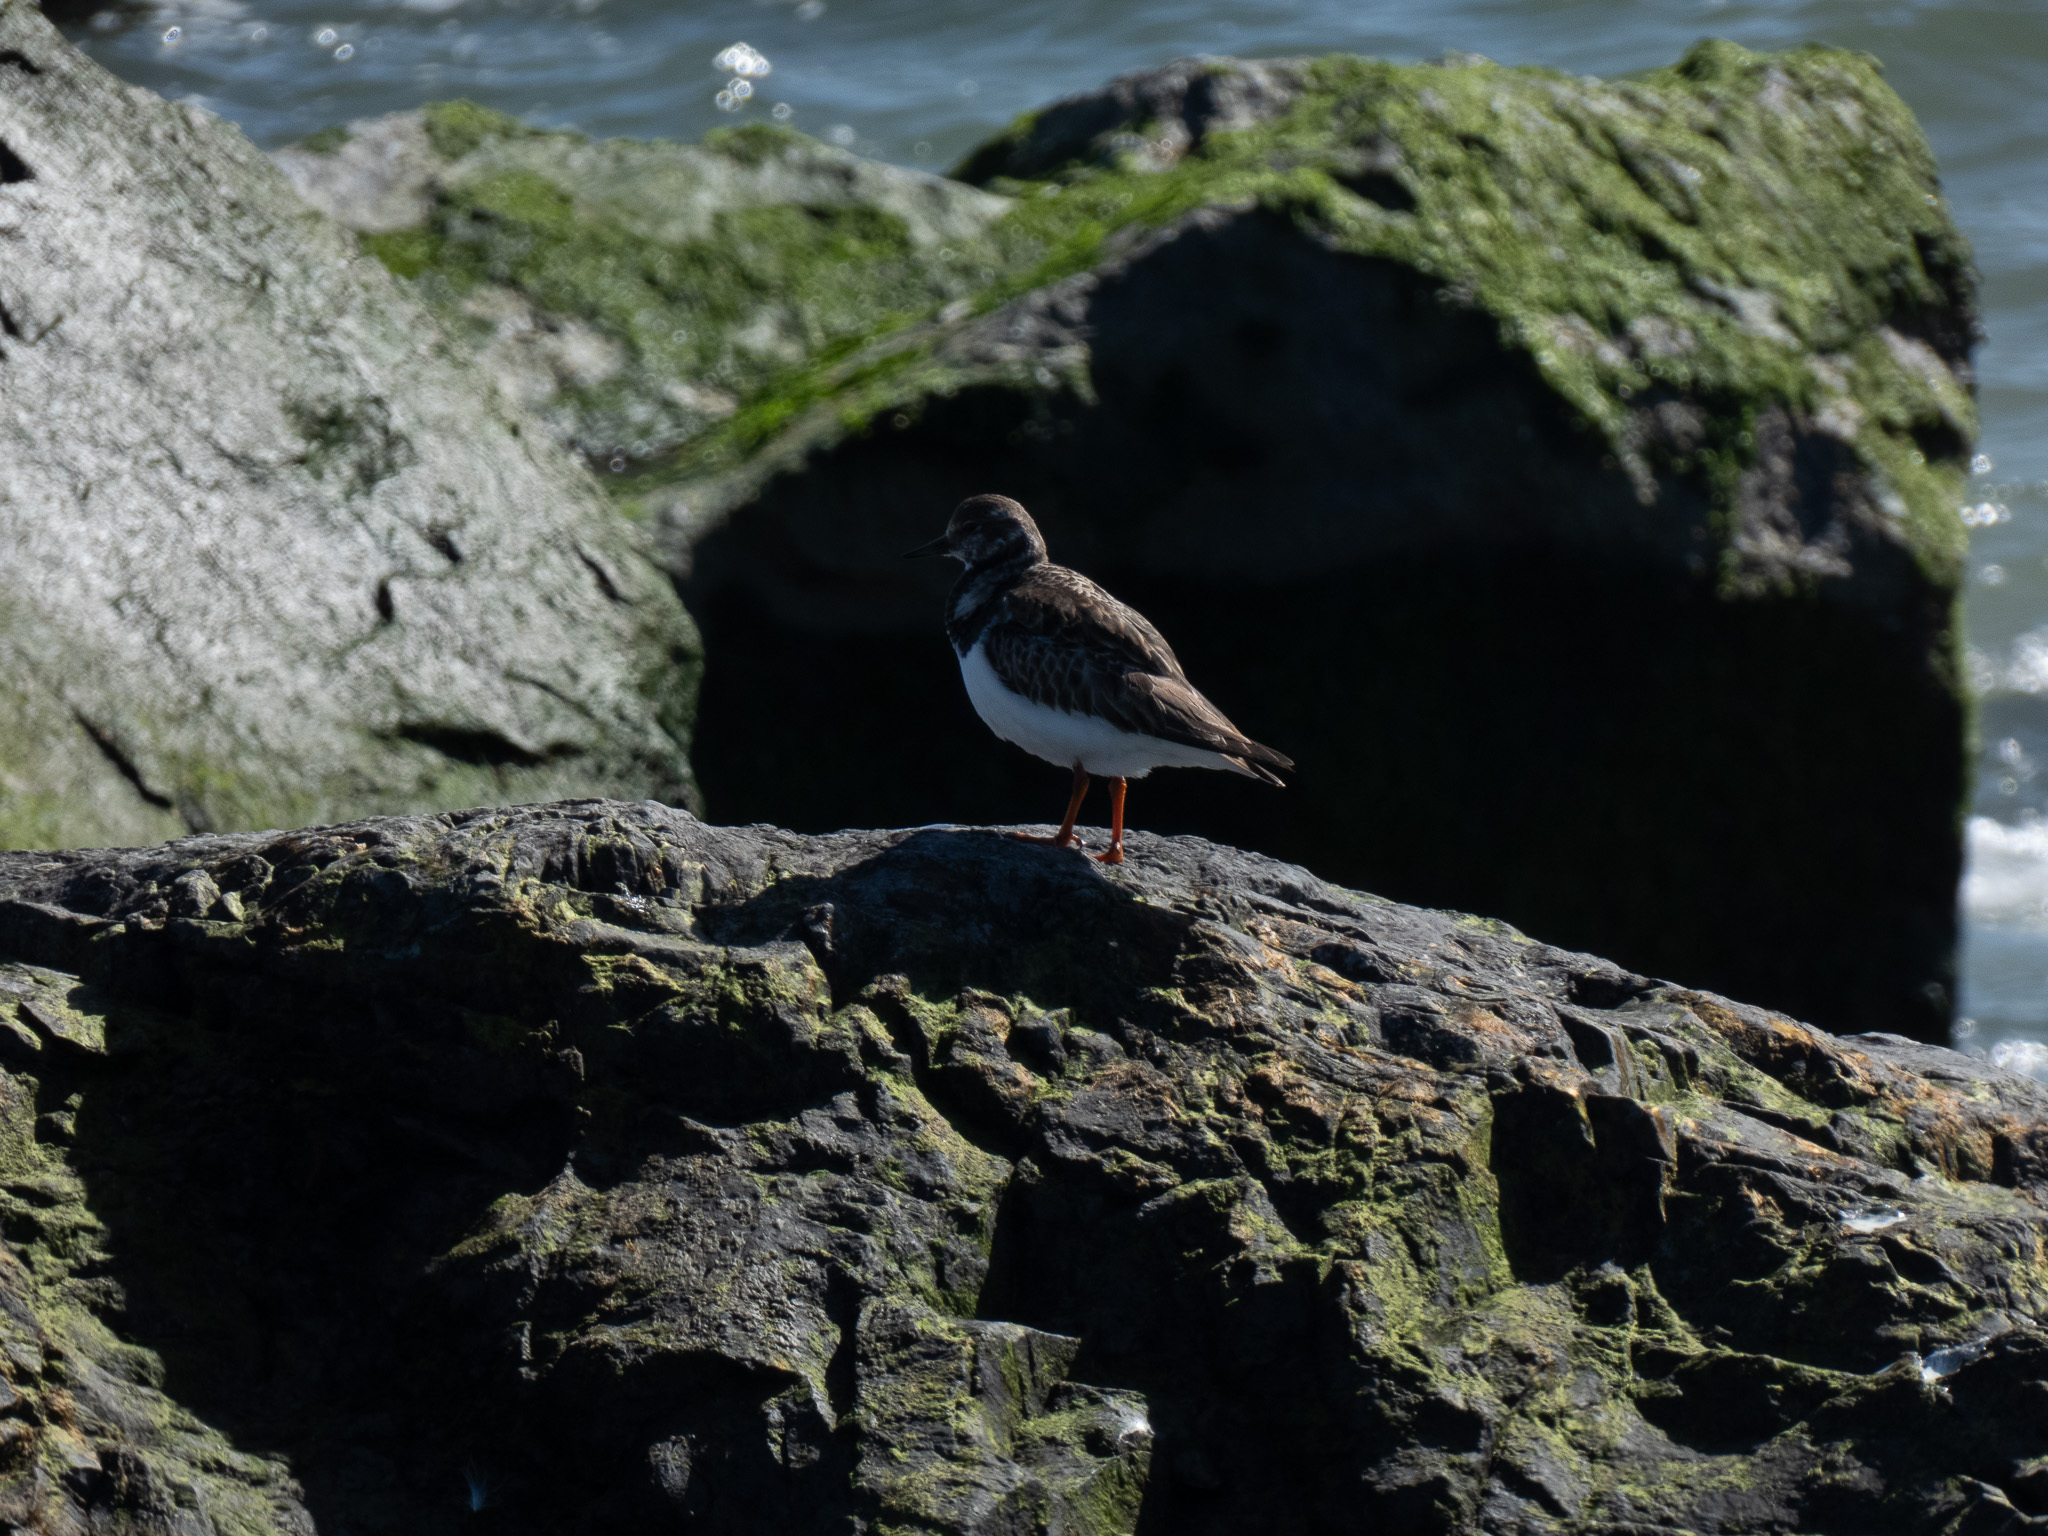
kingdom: Animalia
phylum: Chordata
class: Aves
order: Charadriiformes
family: Scolopacidae
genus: Arenaria
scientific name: Arenaria interpres
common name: Ruddy turnstone
